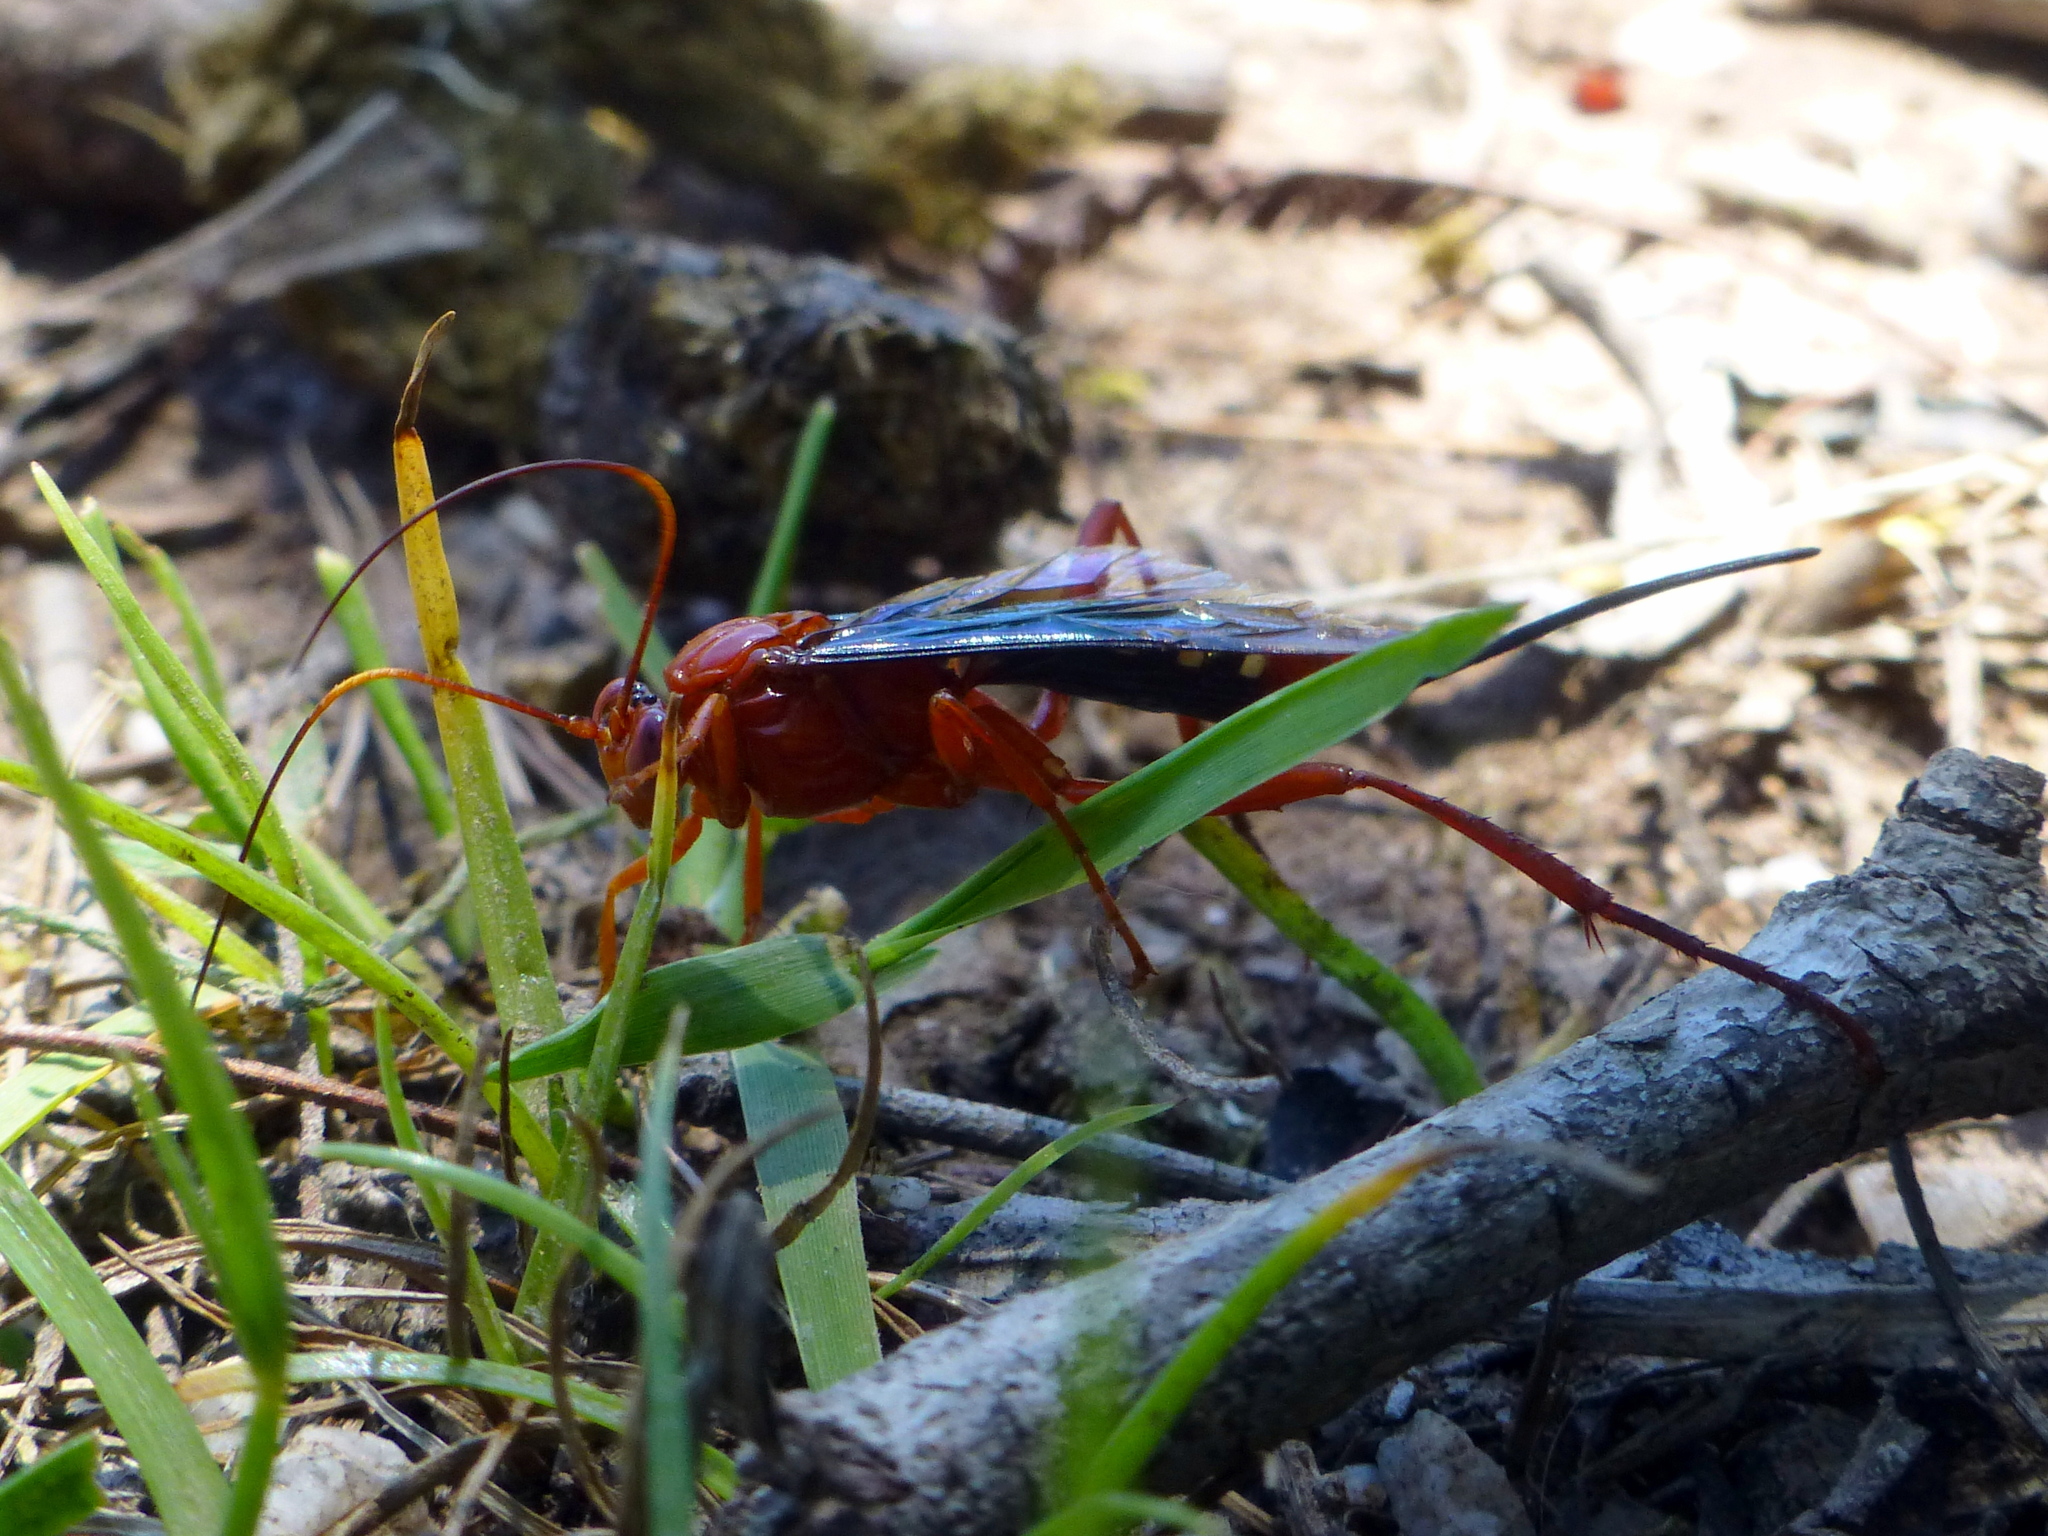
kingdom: Animalia
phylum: Arthropoda
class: Insecta
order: Hymenoptera
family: Ichneumonidae
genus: Lissopimpla
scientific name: Lissopimpla excelsa
